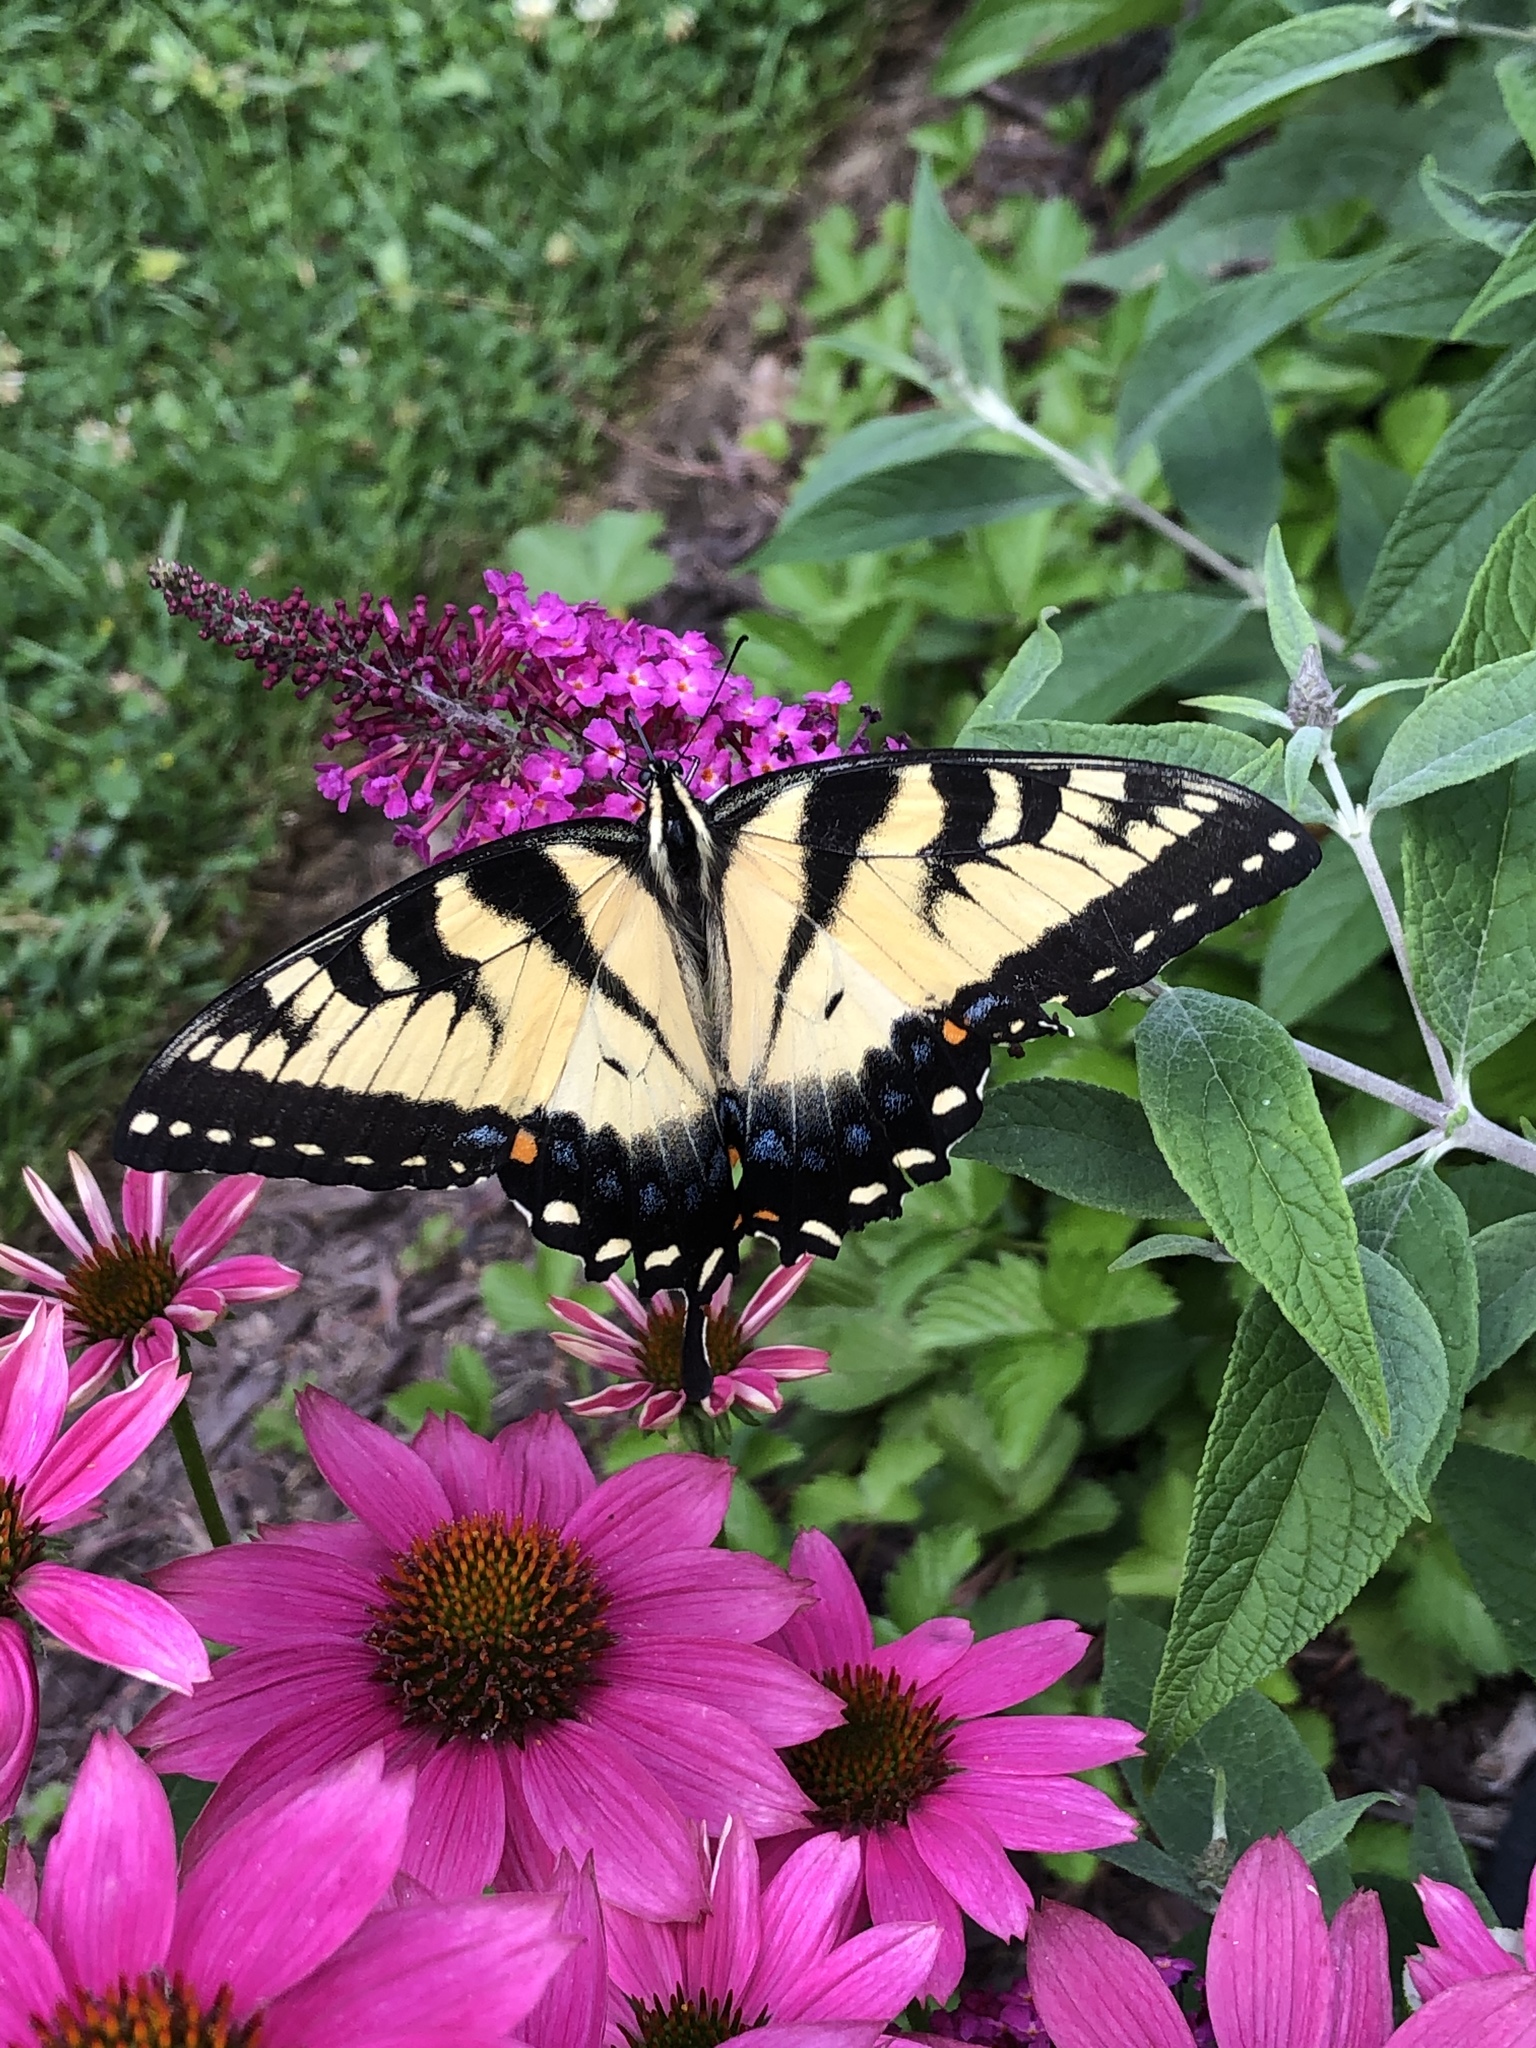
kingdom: Animalia
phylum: Arthropoda
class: Insecta
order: Lepidoptera
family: Papilionidae
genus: Pterourus
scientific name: Pterourus
